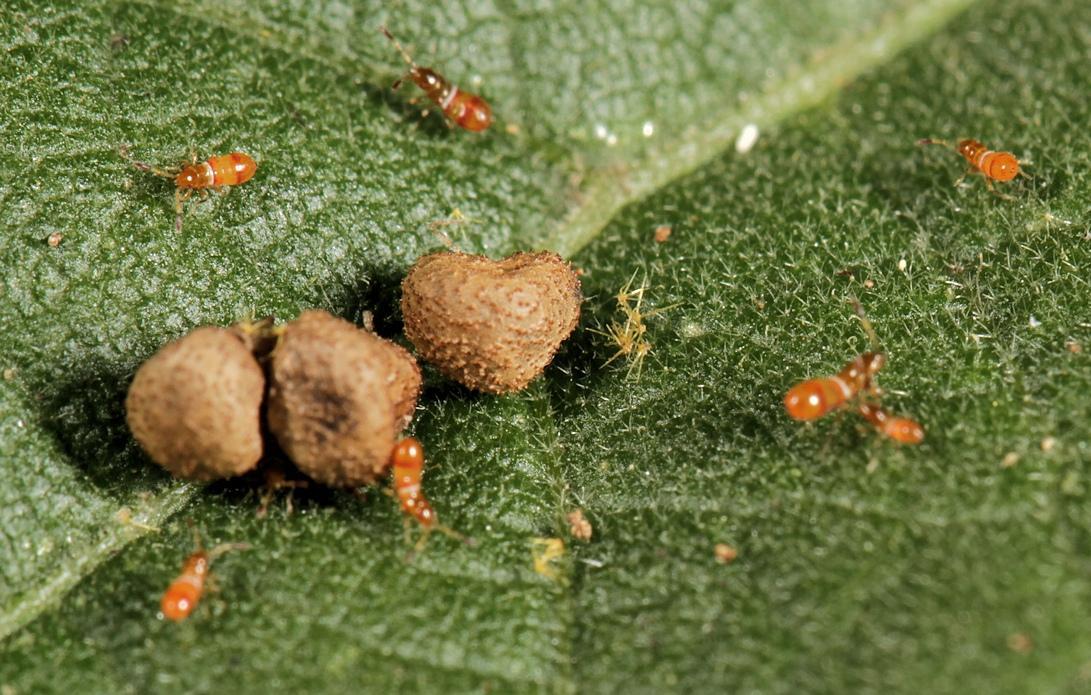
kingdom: Plantae
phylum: Tracheophyta
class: Magnoliopsida
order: Malvales
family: Malvaceae
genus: Abutilon
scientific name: Abutilon ramosum
